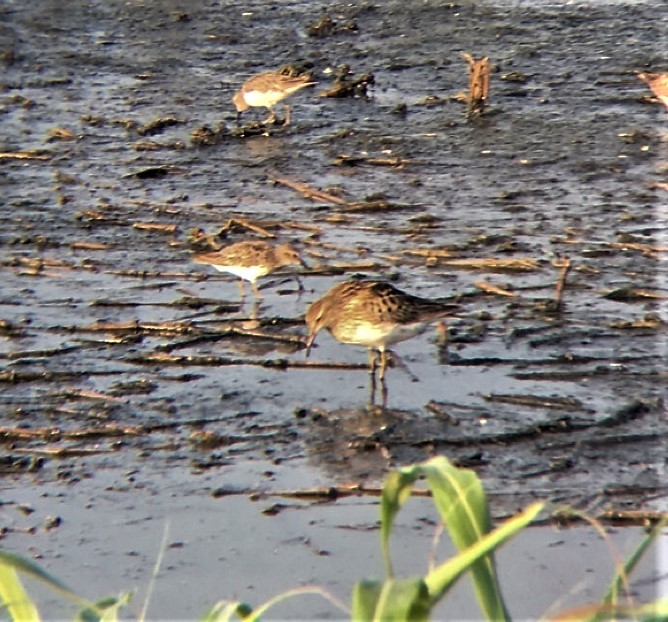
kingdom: Animalia
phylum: Chordata
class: Aves
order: Charadriiformes
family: Scolopacidae
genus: Calidris
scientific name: Calidris melanotos
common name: Pectoral sandpiper
